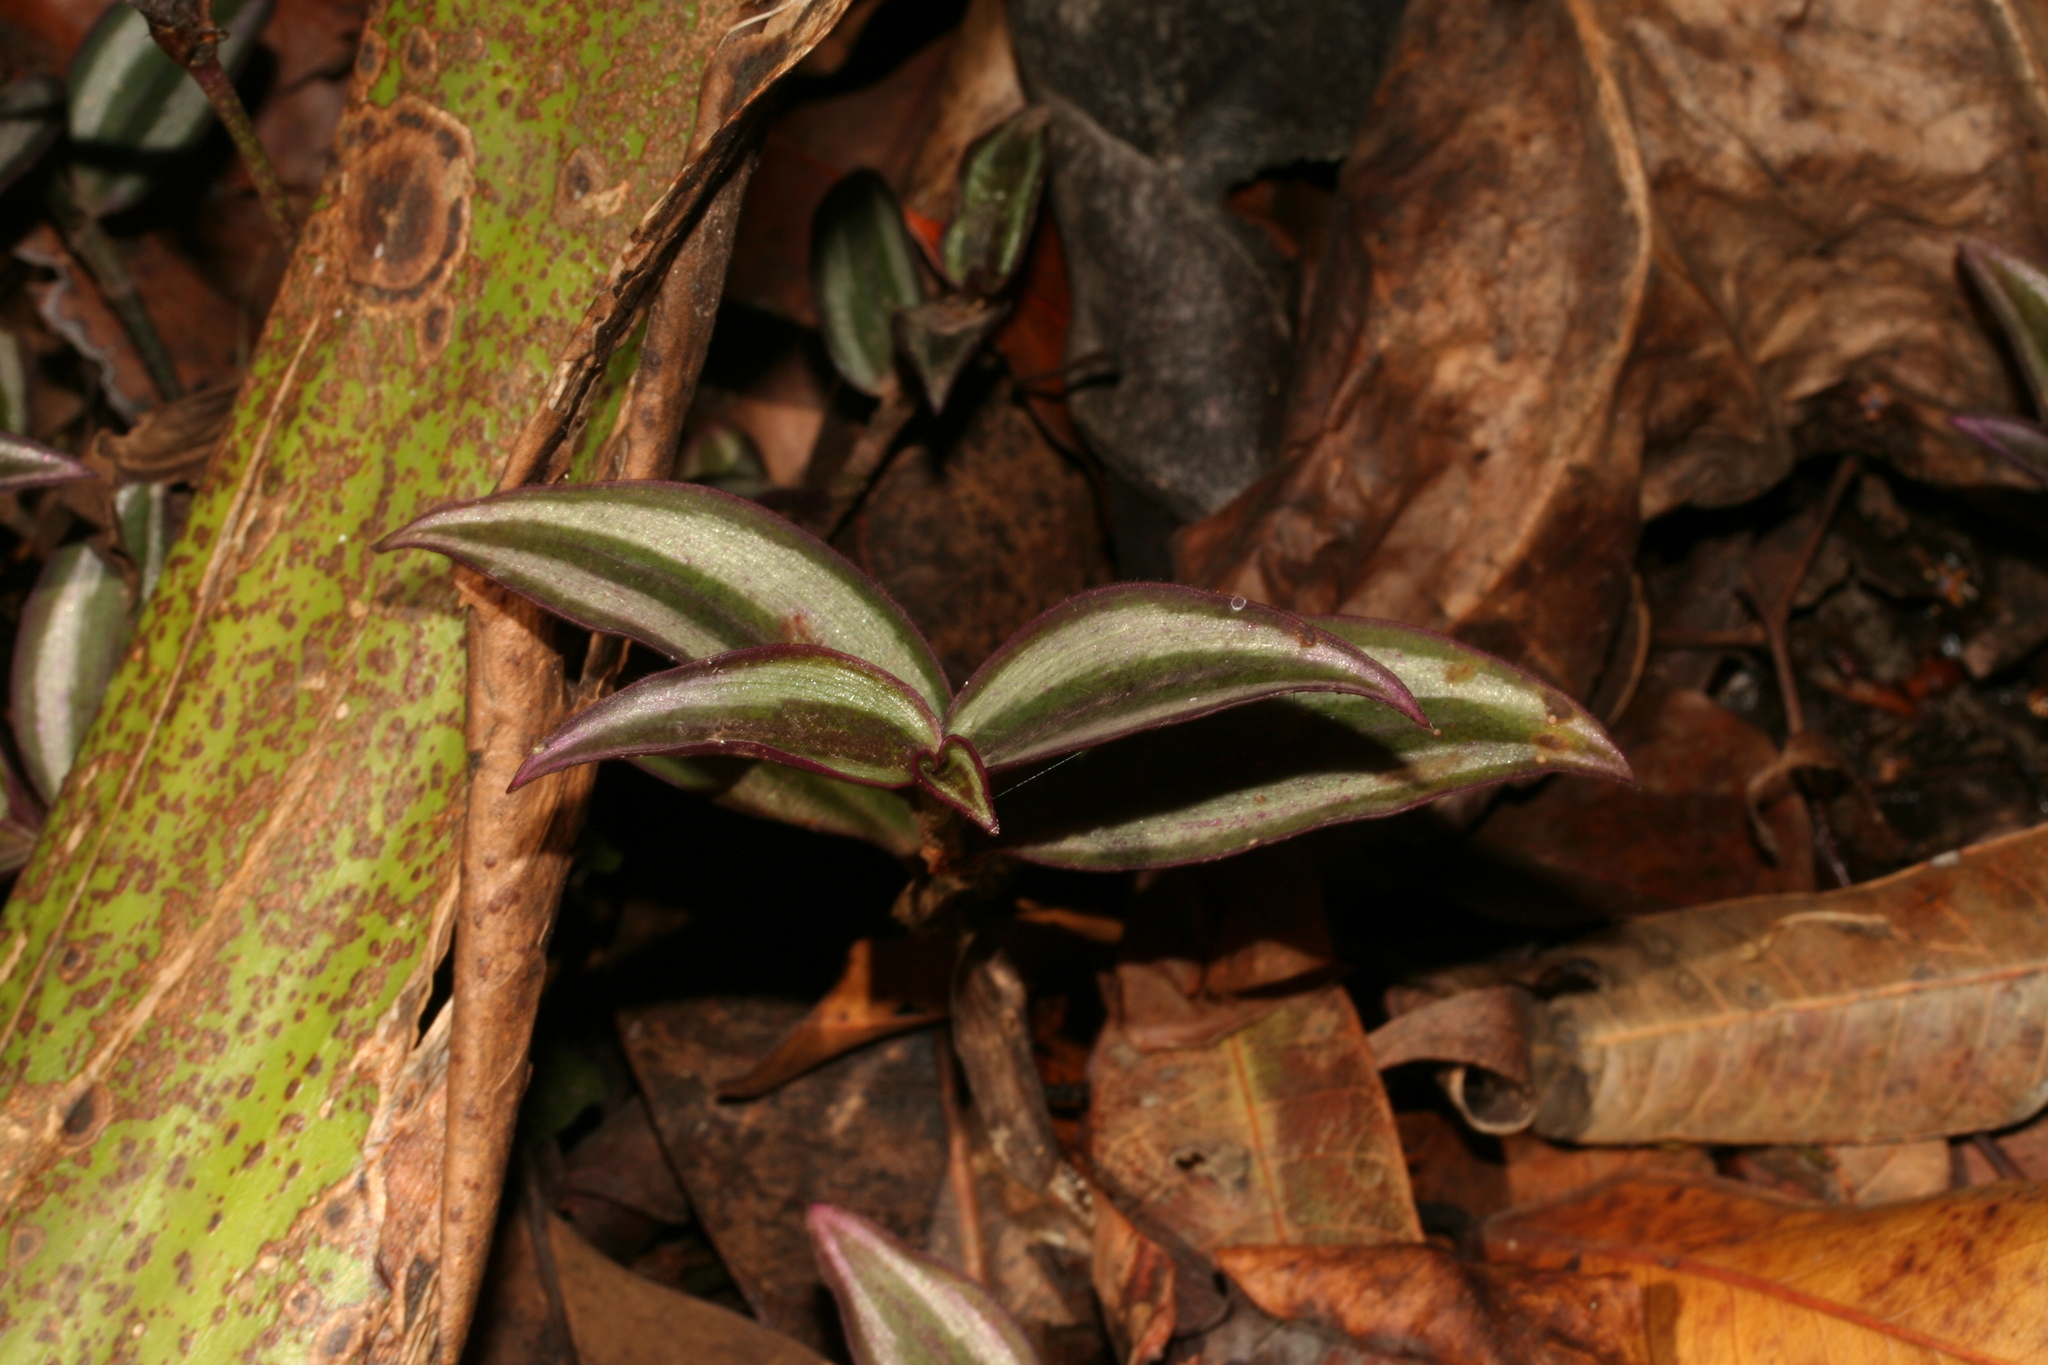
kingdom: Plantae
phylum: Tracheophyta
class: Liliopsida
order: Commelinales
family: Commelinaceae
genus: Tradescantia
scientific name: Tradescantia zebrina
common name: Inchplant
